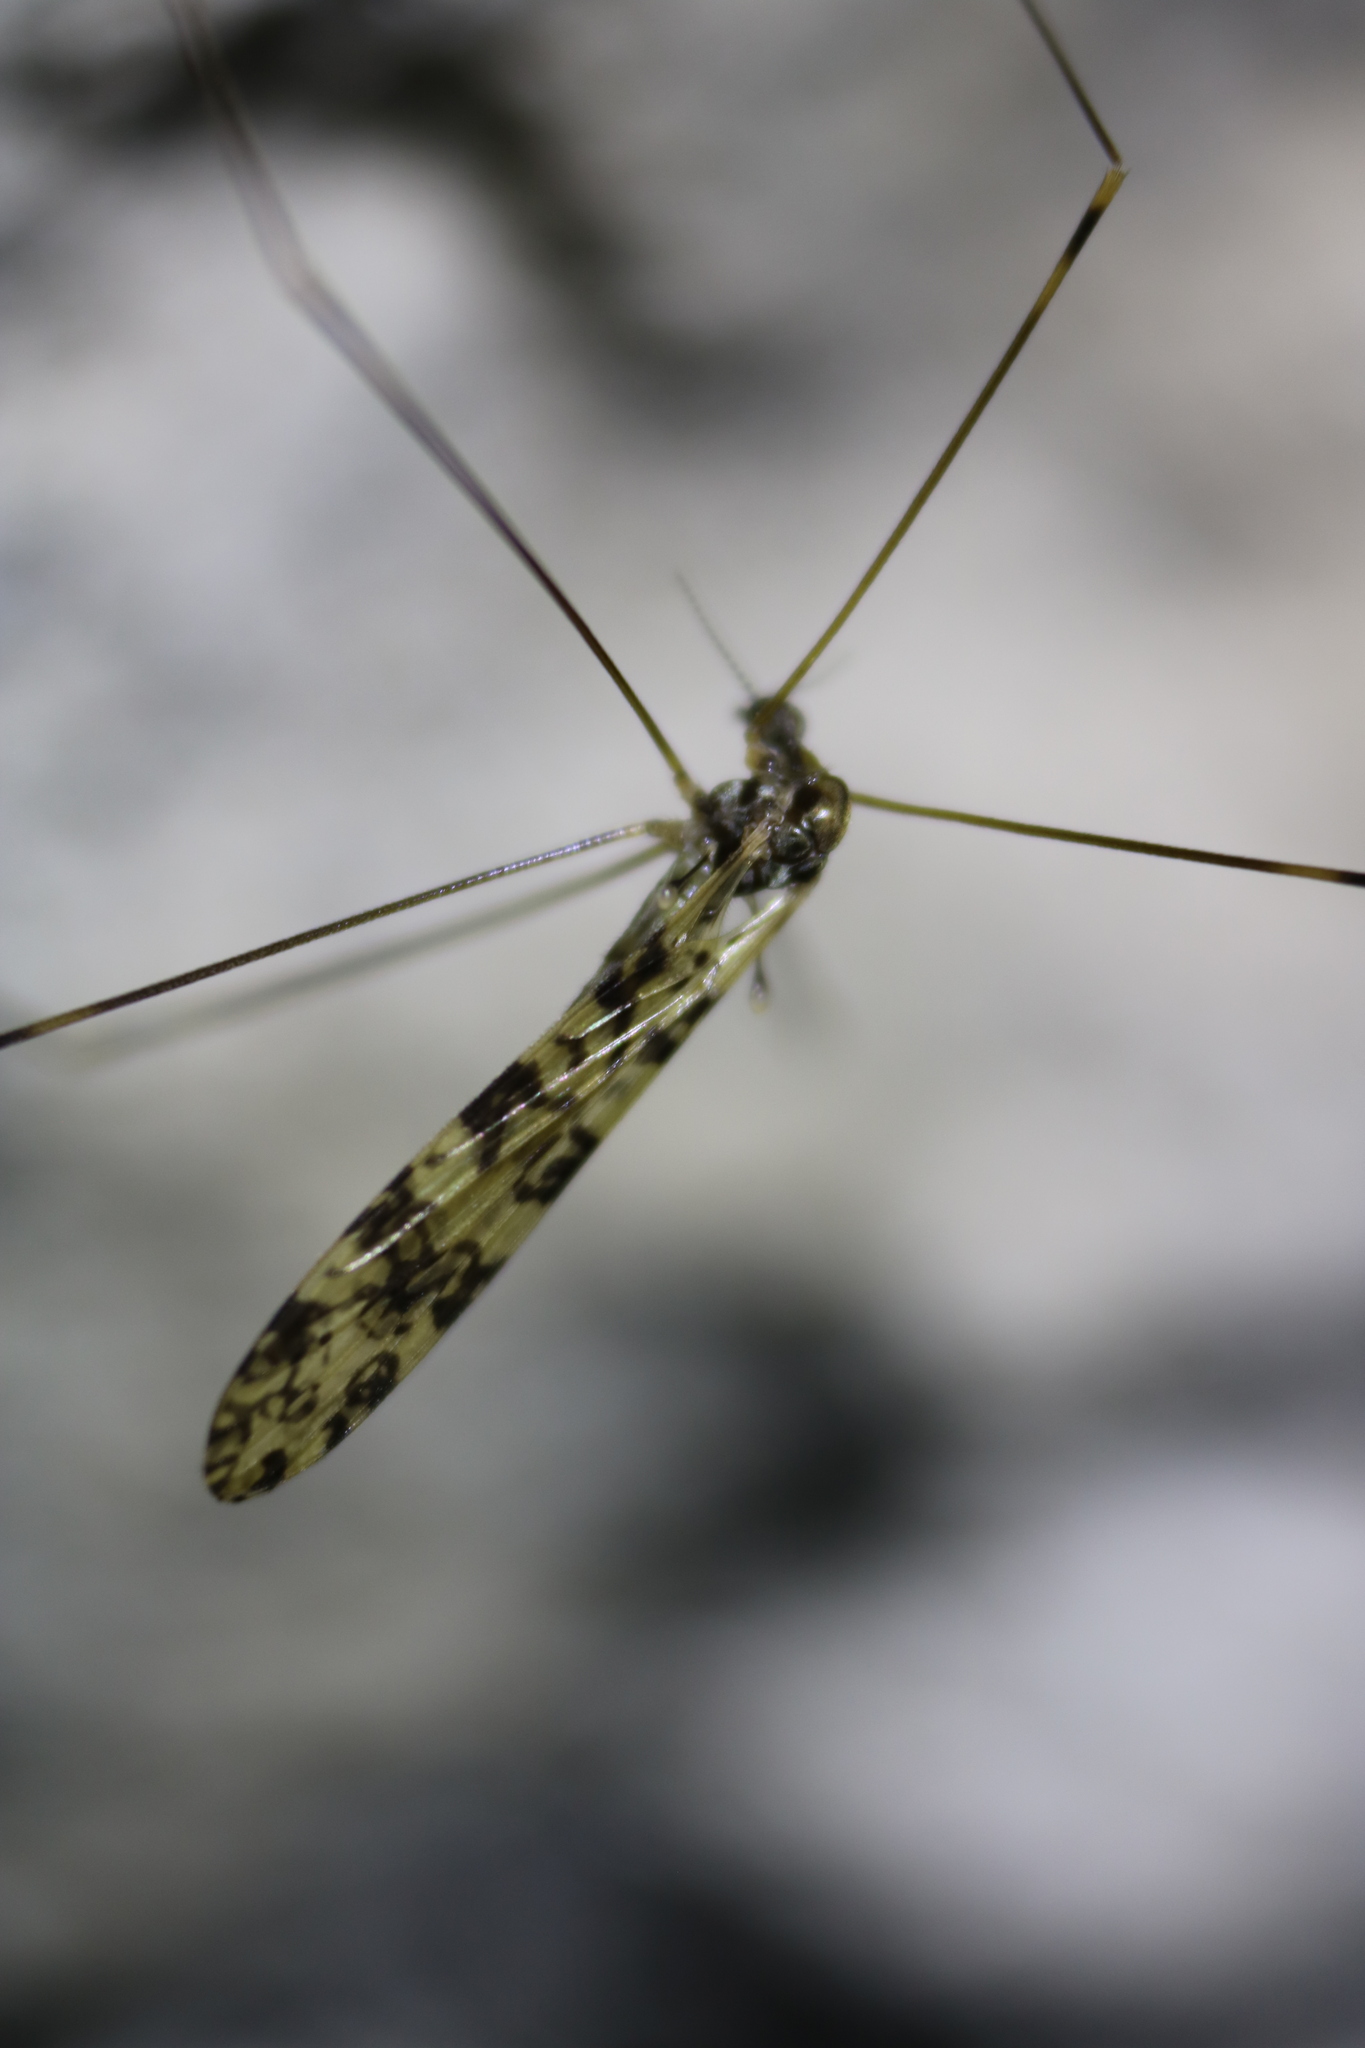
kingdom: Animalia
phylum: Arthropoda
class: Insecta
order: Diptera
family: Limoniidae
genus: Limonia
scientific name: Limonia annulata
